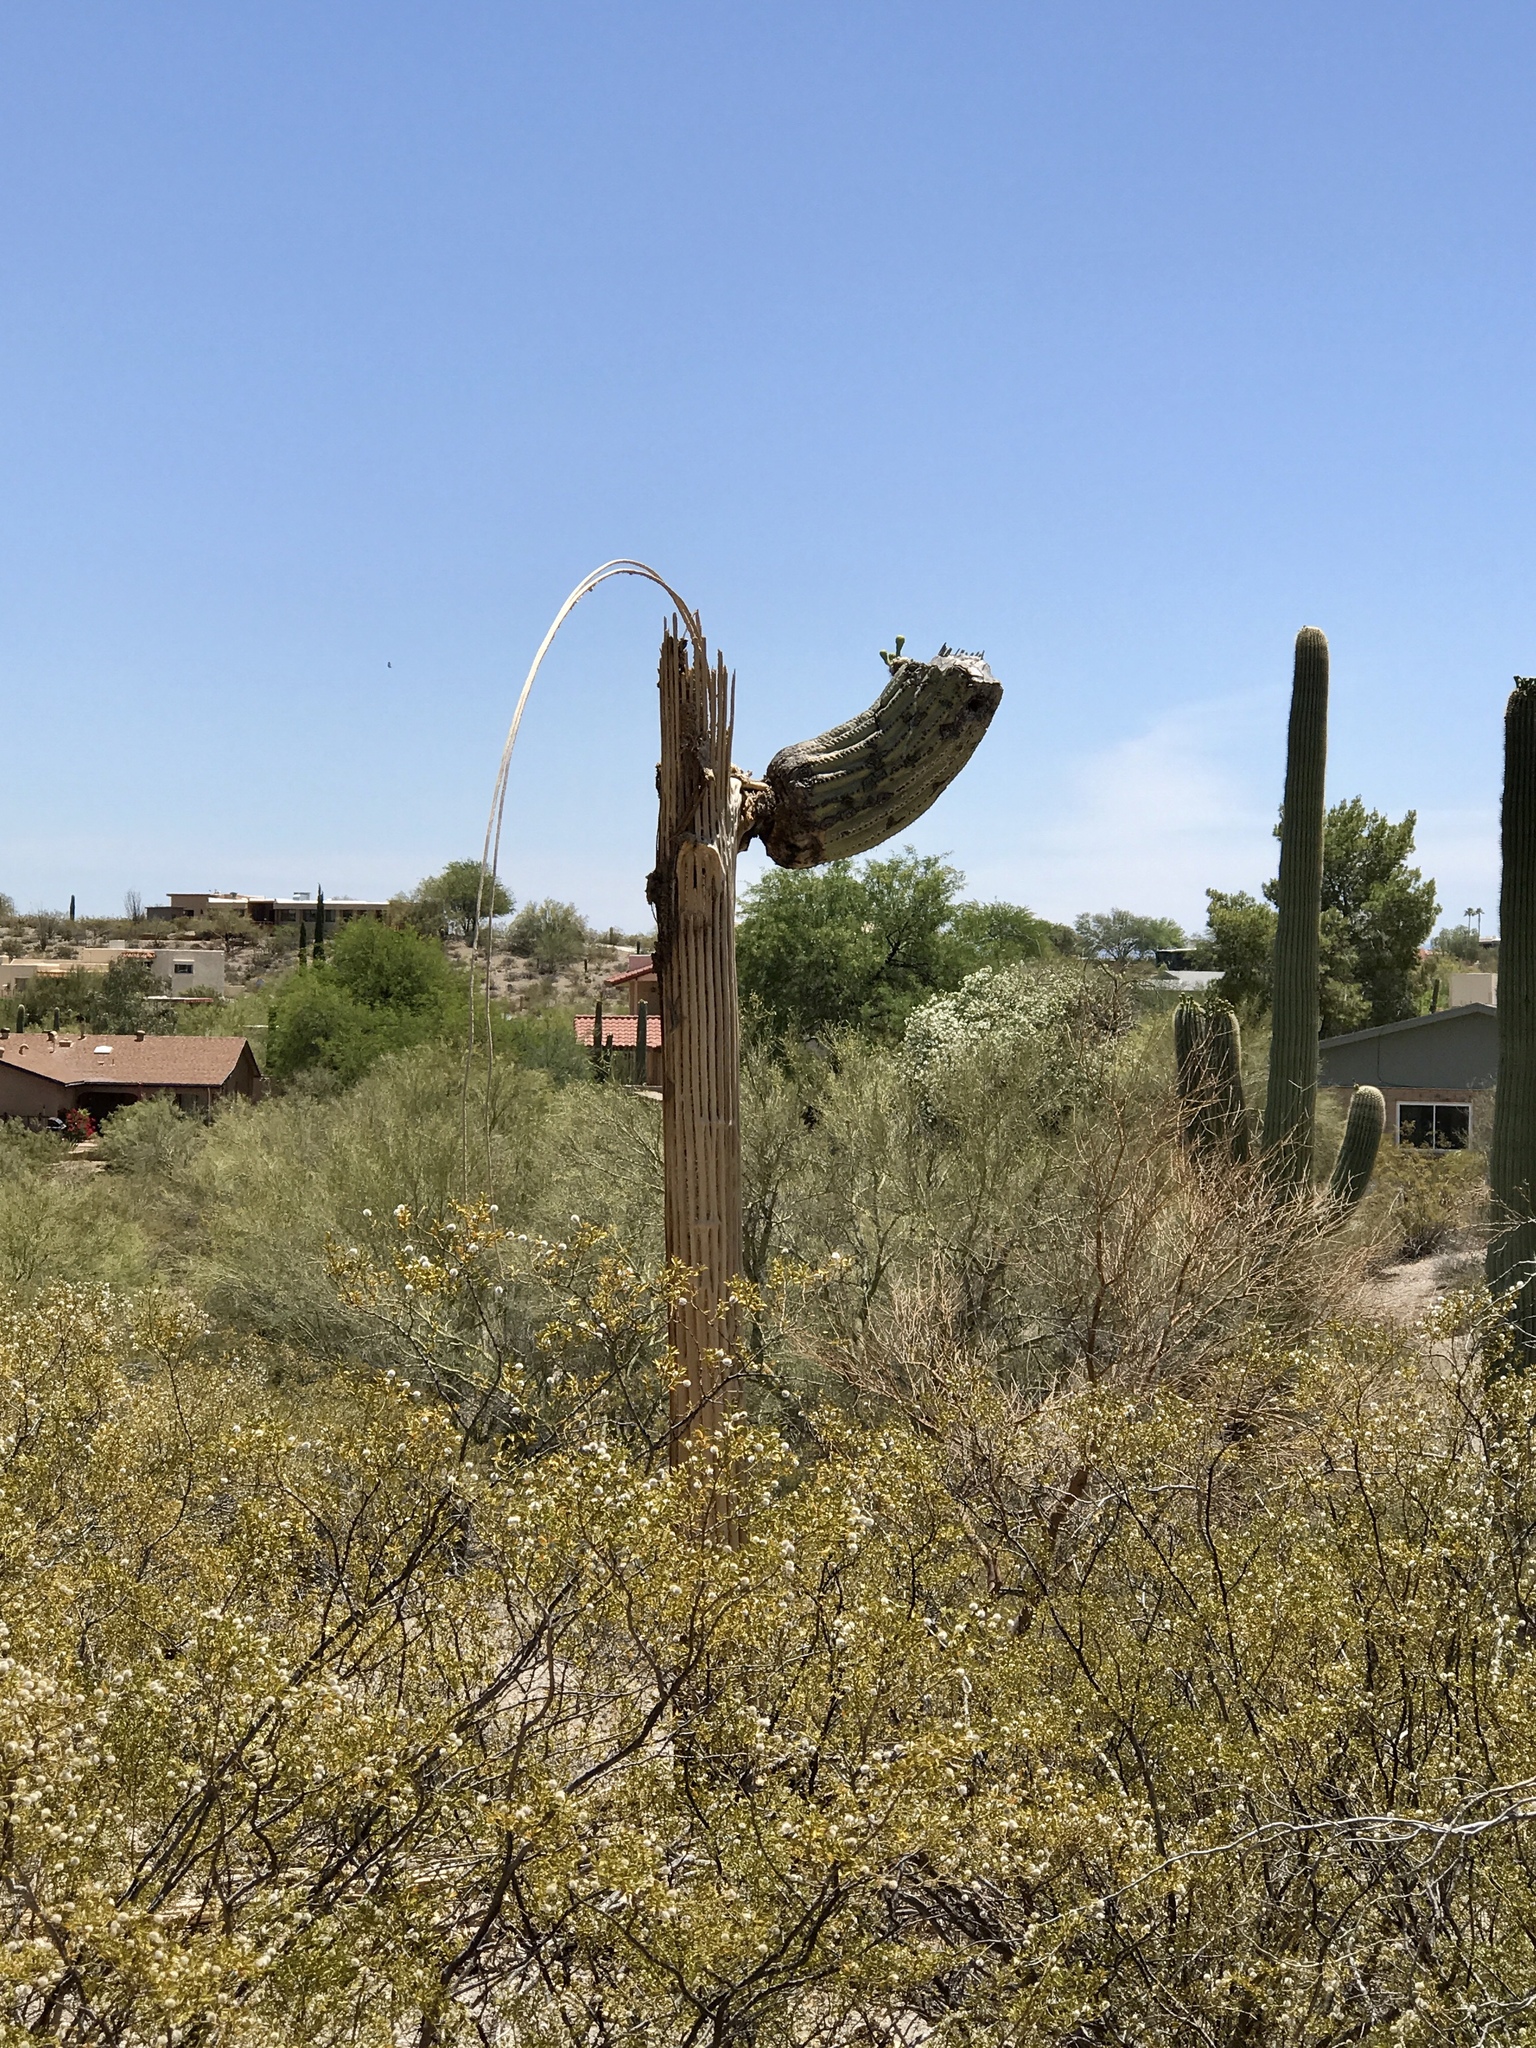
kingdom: Plantae
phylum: Tracheophyta
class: Magnoliopsida
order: Caryophyllales
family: Cactaceae
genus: Carnegiea
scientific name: Carnegiea gigantea
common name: Saguaro
